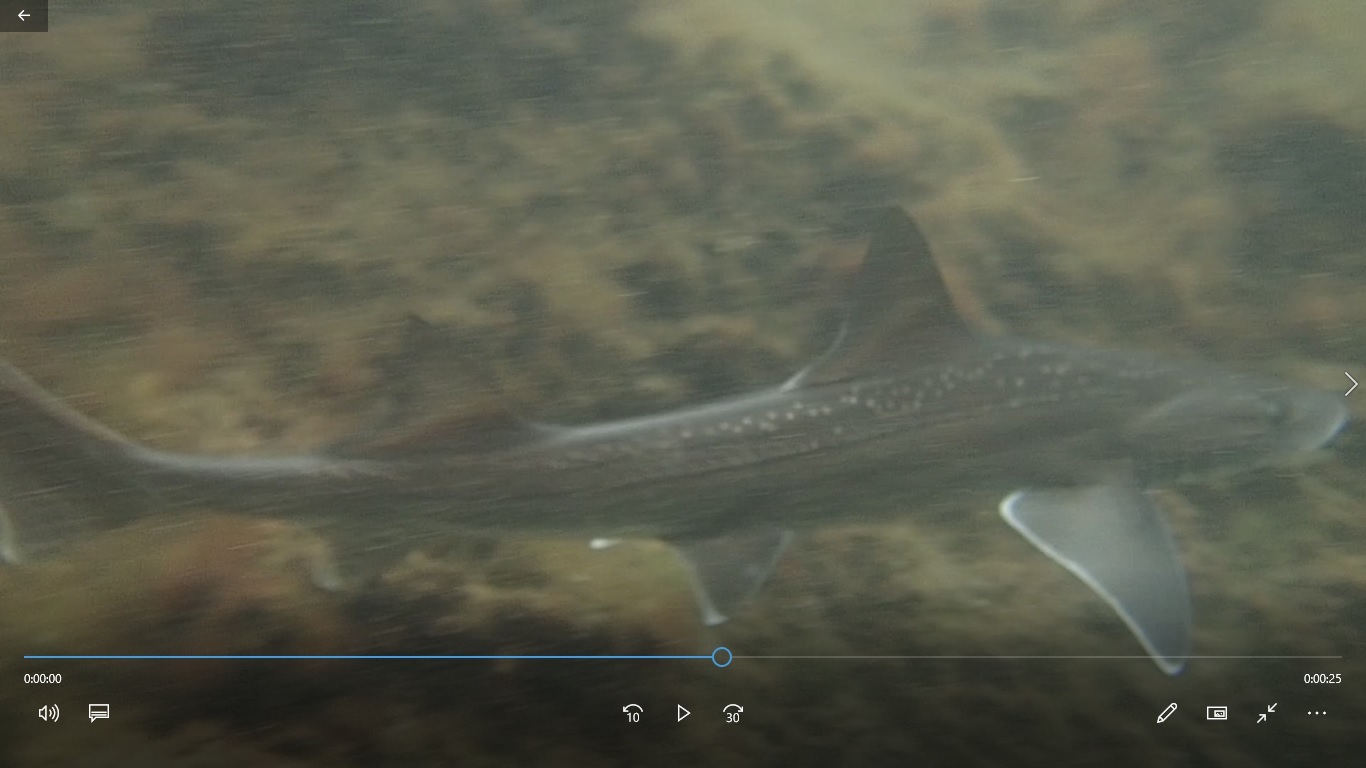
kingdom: Animalia
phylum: Chordata
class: Elasmobranchii
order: Carcharhiniformes
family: Triakidae
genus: Mustelus
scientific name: Mustelus lenticulatus
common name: Gummy shark
